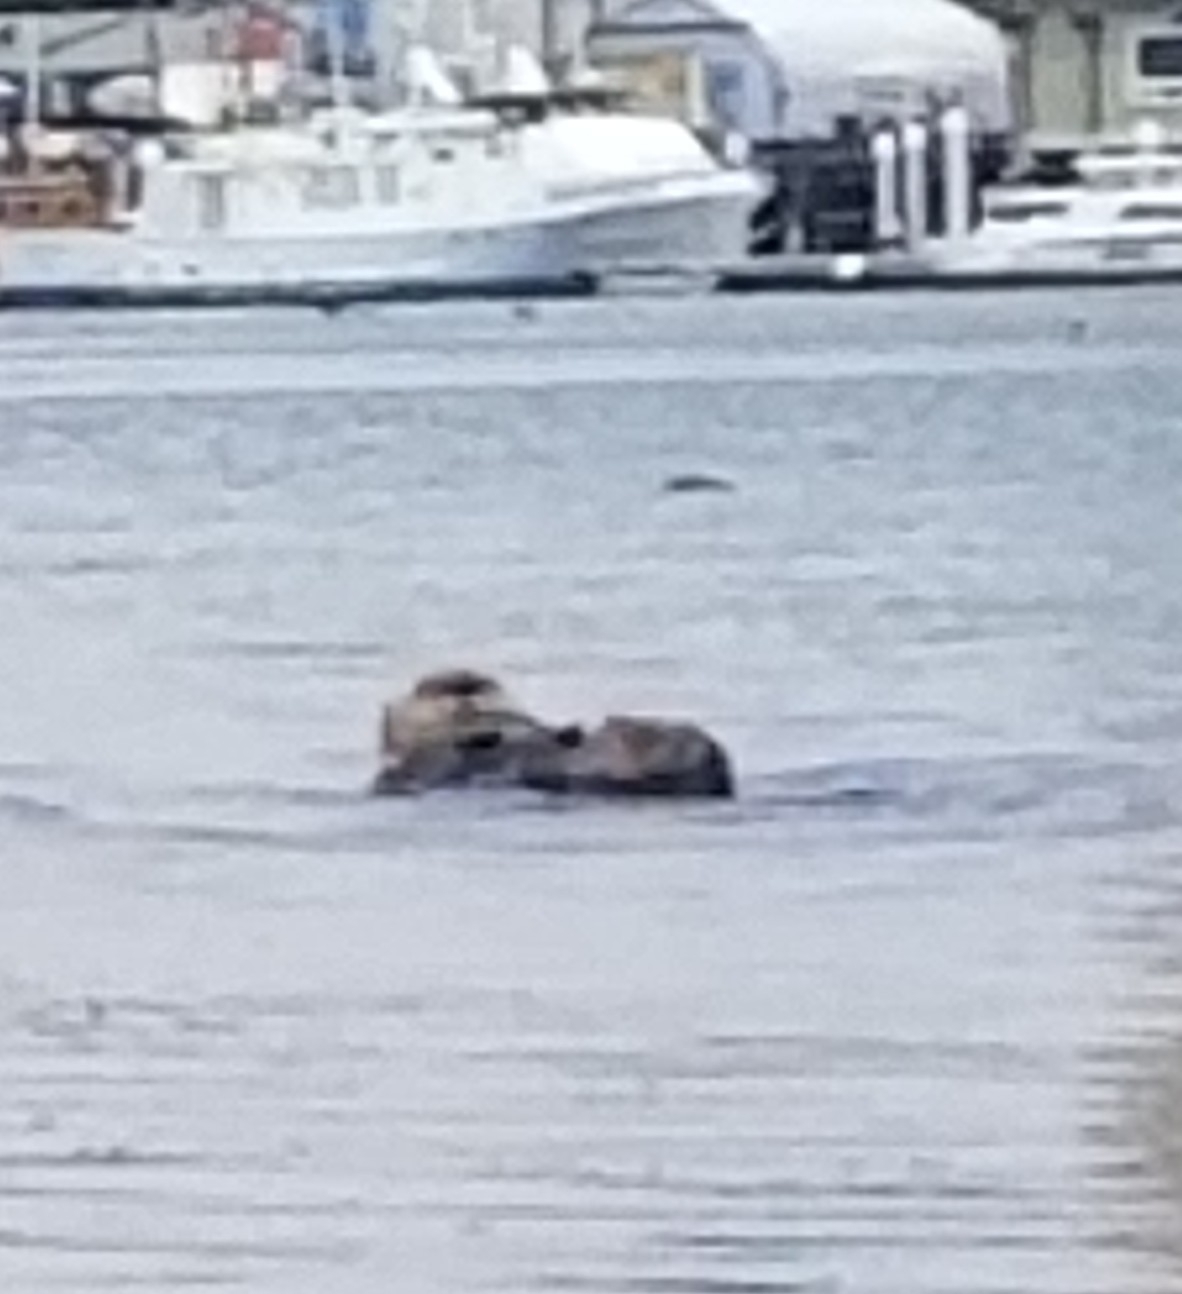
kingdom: Animalia
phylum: Chordata
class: Mammalia
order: Carnivora
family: Mustelidae
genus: Enhydra
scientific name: Enhydra lutris
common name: Sea otter
